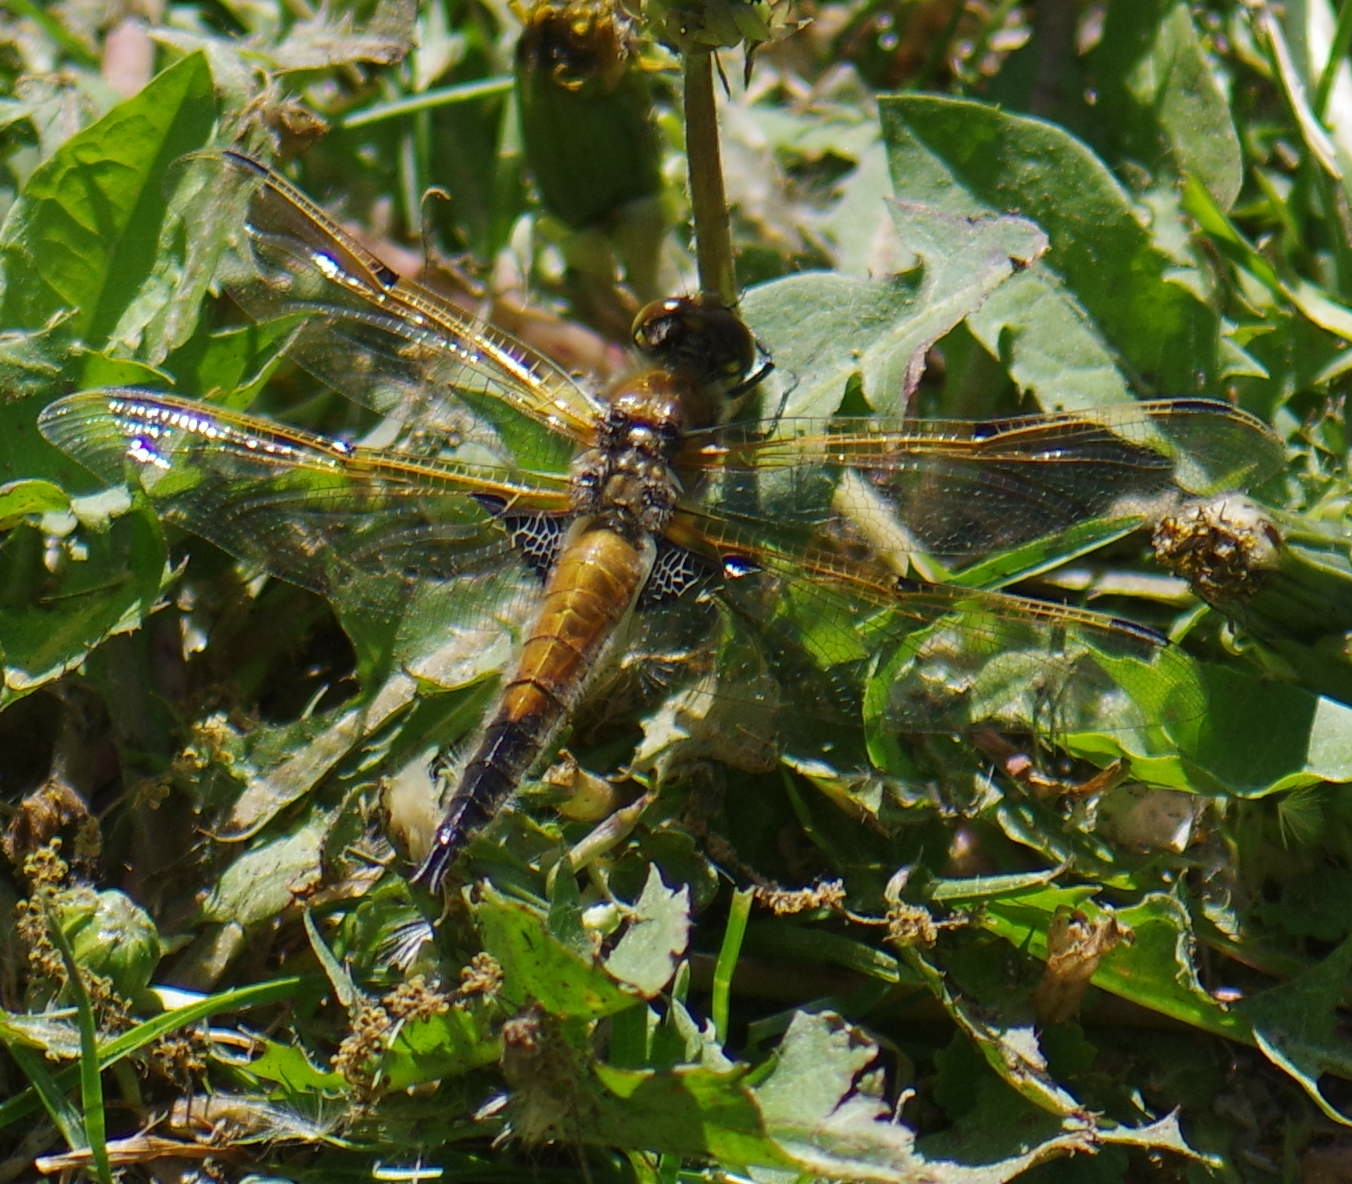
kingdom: Animalia
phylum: Arthropoda
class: Insecta
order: Odonata
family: Libellulidae
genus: Libellula
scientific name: Libellula quadrimaculata
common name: Four-spotted chaser
